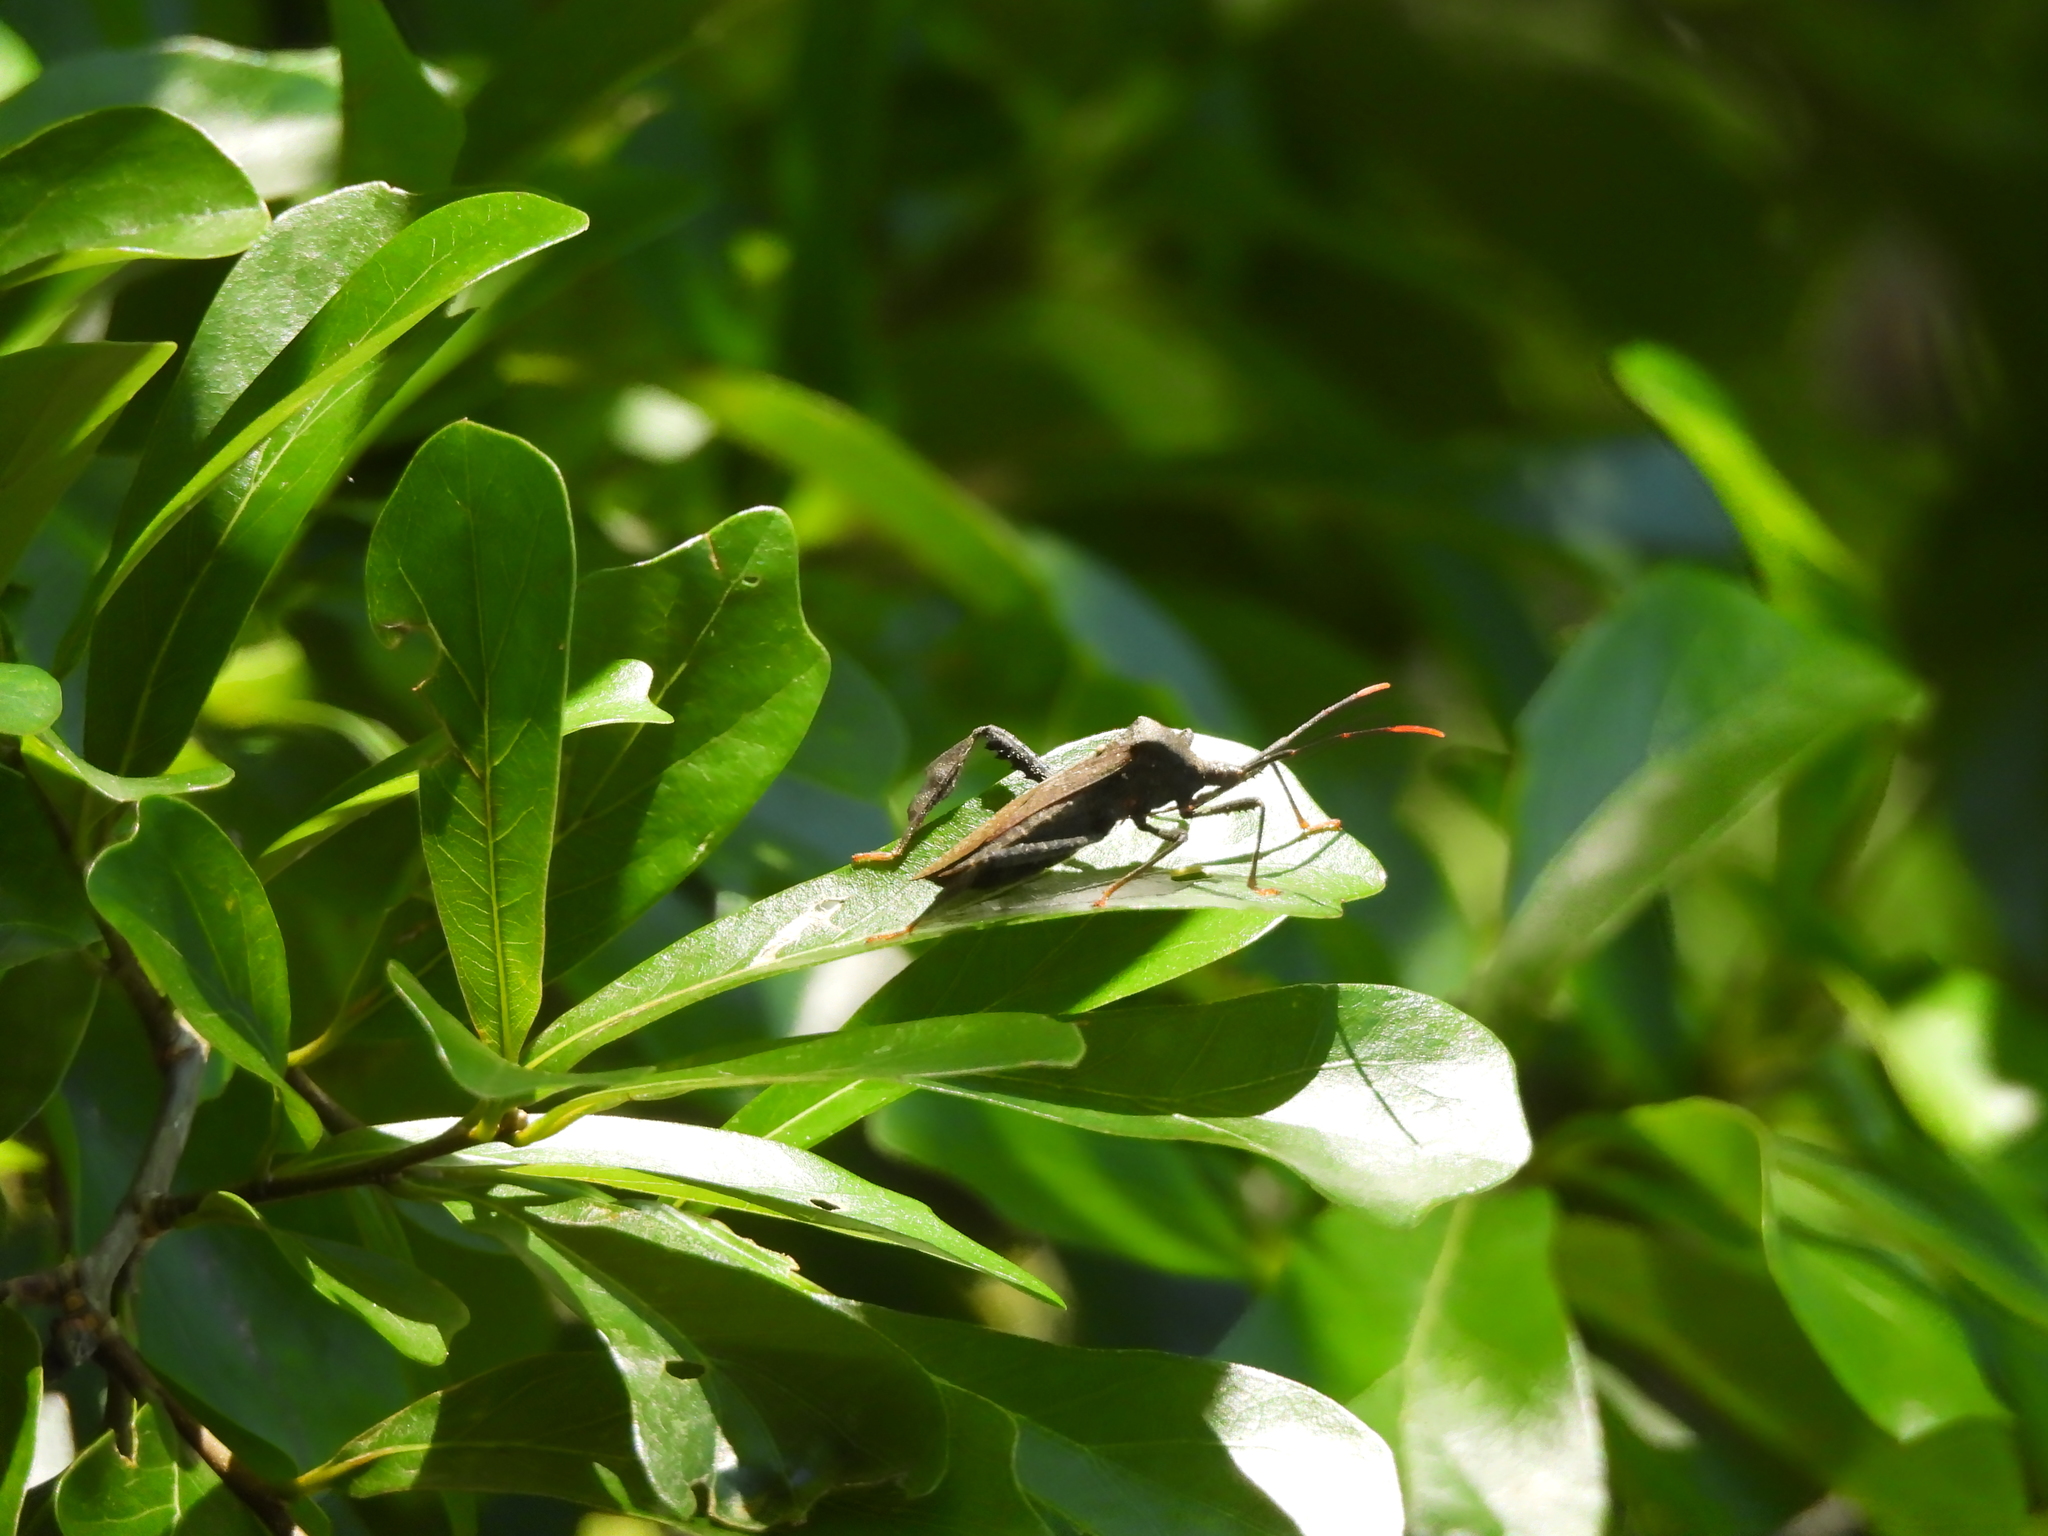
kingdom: Animalia
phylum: Arthropoda
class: Insecta
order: Hemiptera
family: Coreidae
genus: Acanthocephala
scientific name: Acanthocephala terminalis
